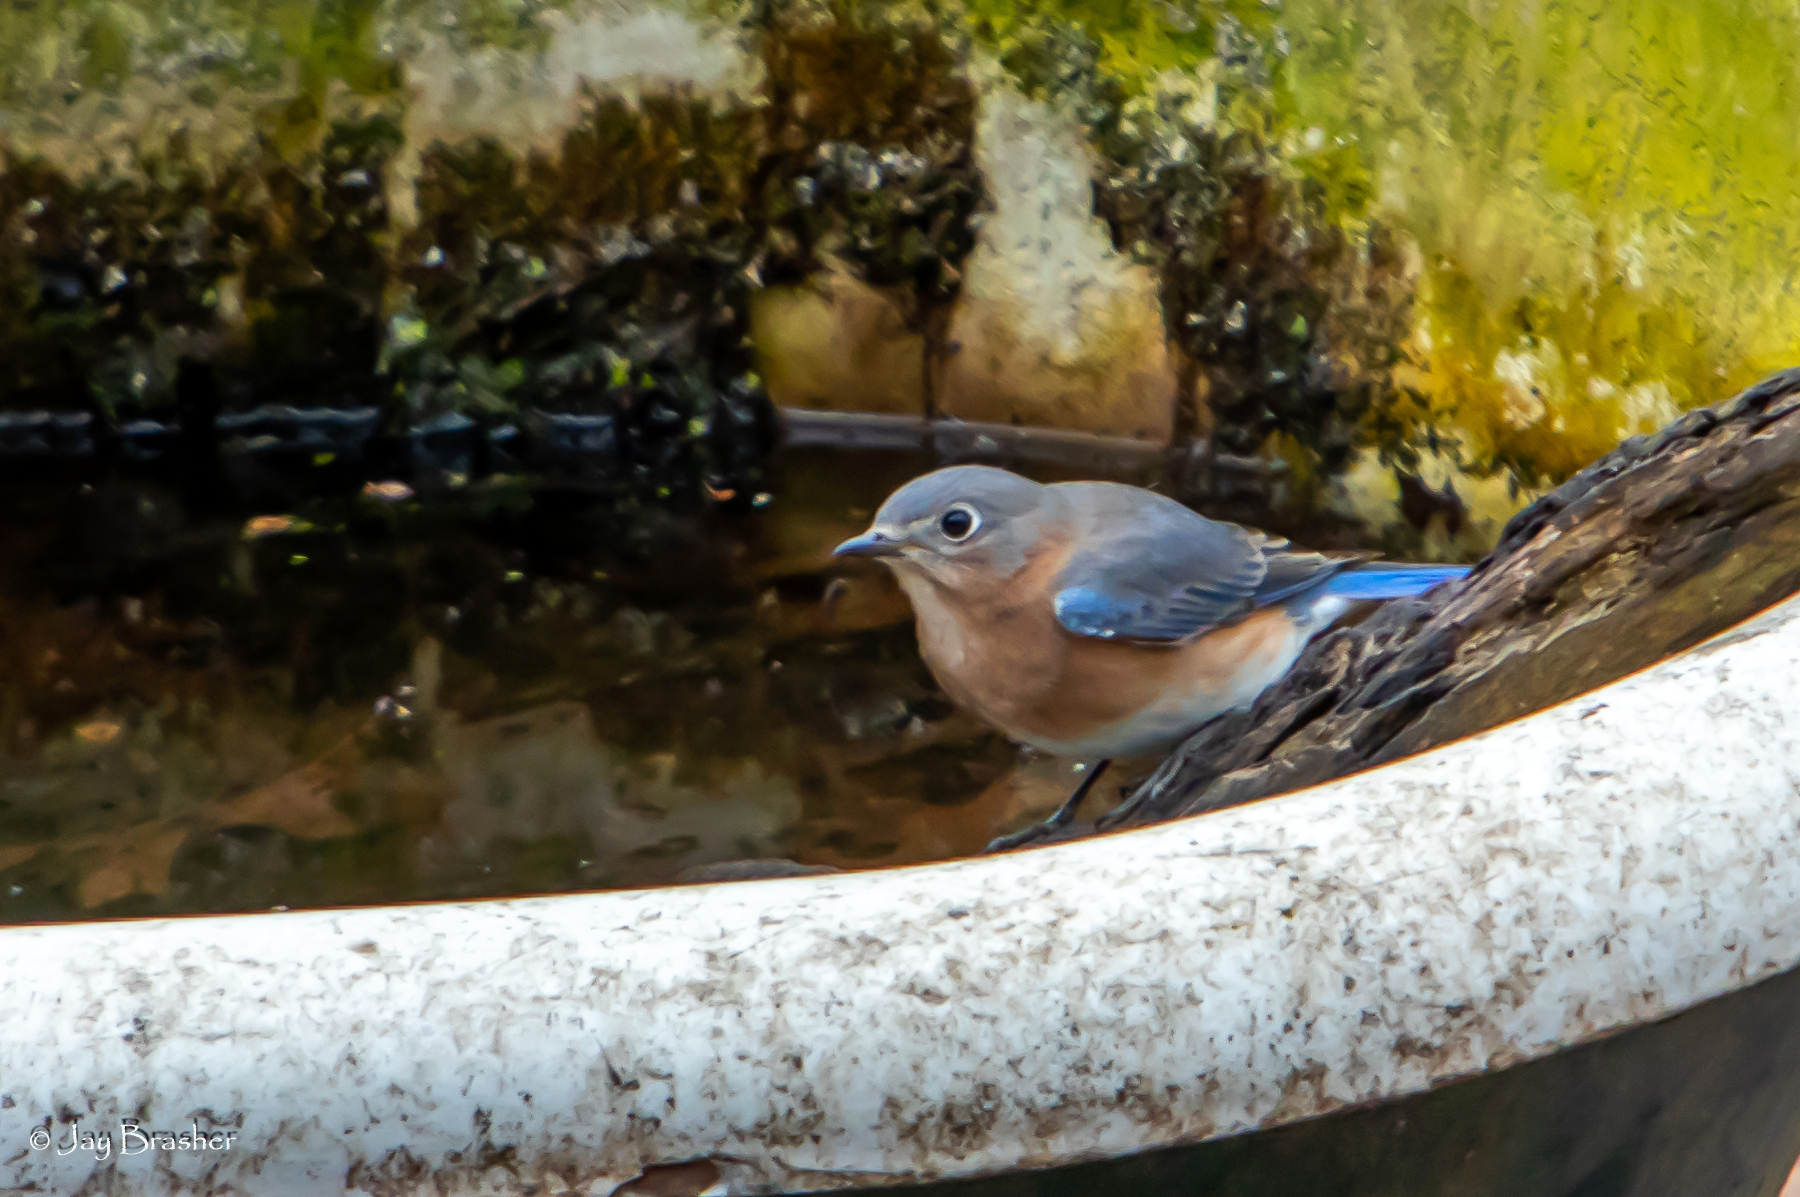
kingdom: Animalia
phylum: Chordata
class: Aves
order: Passeriformes
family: Turdidae
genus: Sialia
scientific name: Sialia sialis
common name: Eastern bluebird
